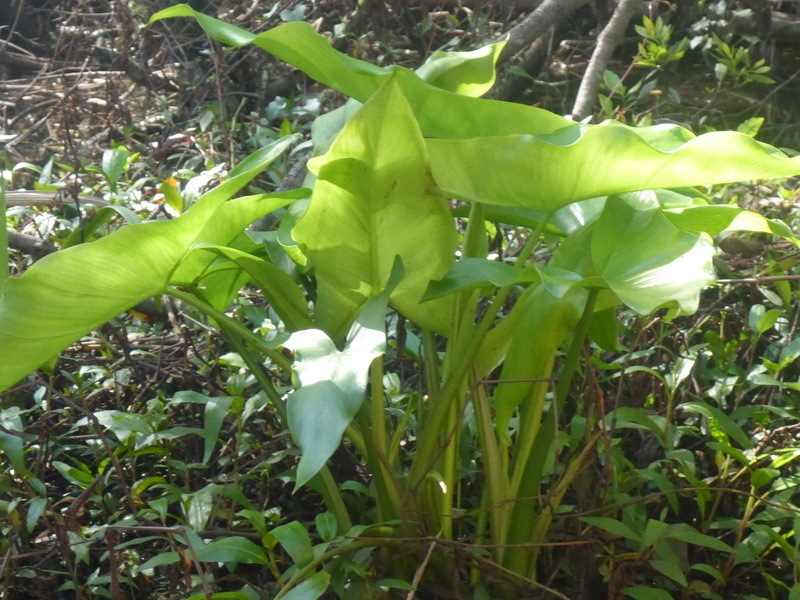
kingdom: Plantae
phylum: Tracheophyta
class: Liliopsida
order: Alismatales
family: Araceae
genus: Peltandra
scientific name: Peltandra virginica
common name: Arrow arum
